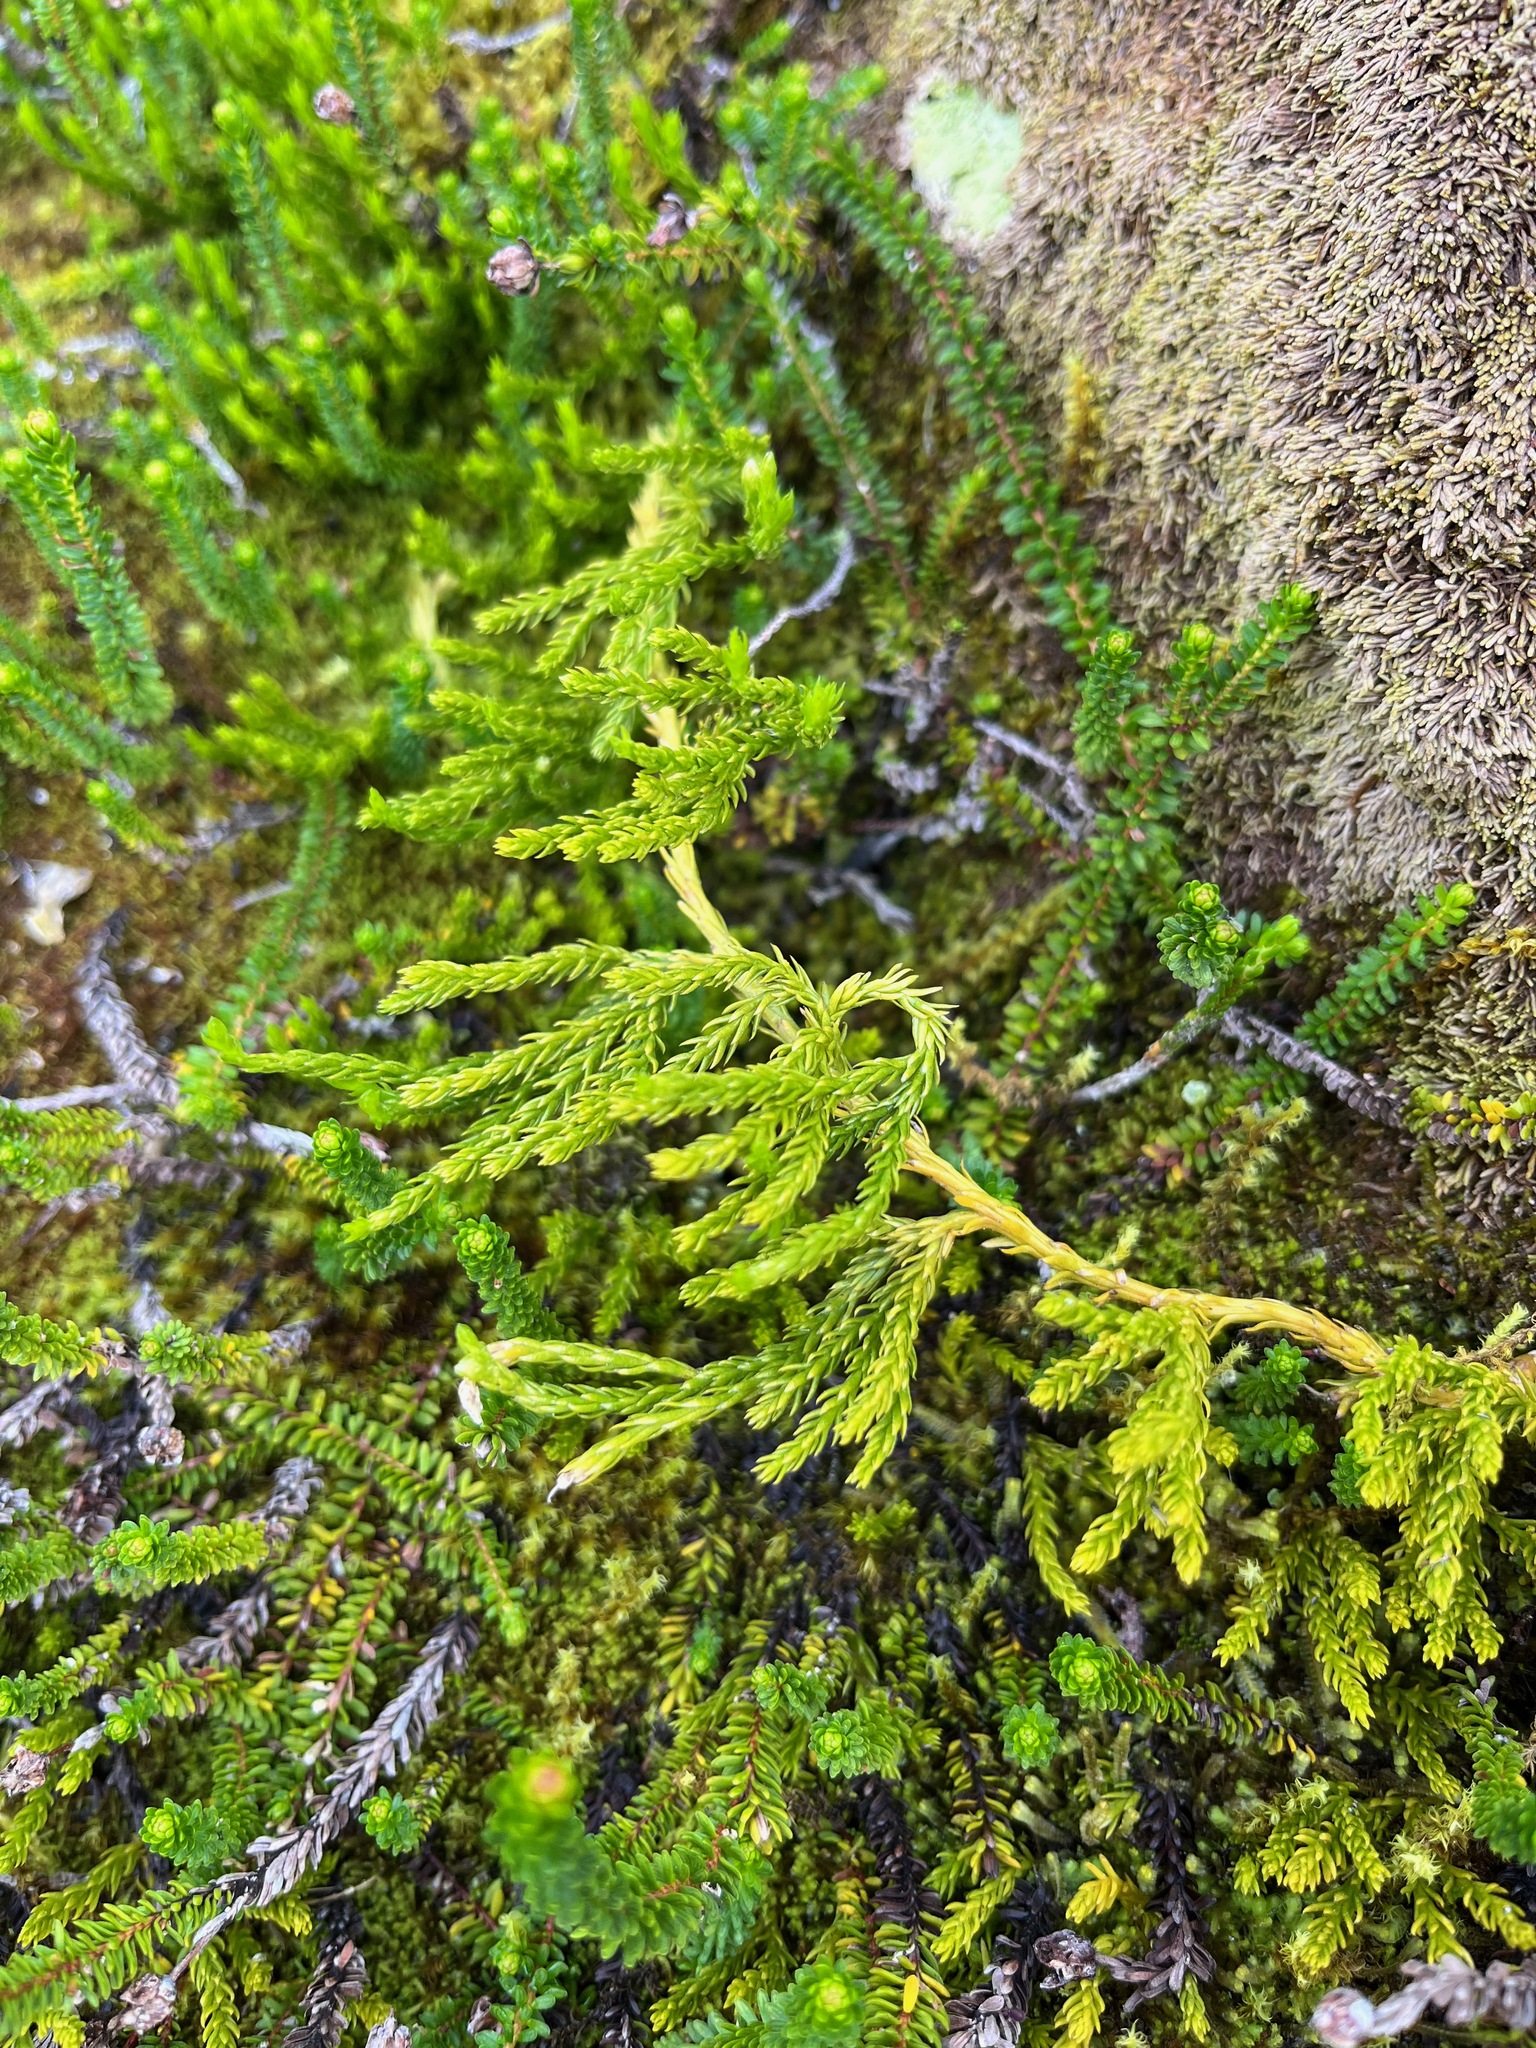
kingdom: Plantae
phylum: Tracheophyta
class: Lycopodiopsida
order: Lycopodiales
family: Lycopodiaceae
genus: Diphasiastrum
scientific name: Diphasiastrum sitchense
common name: Alaska clubmoss
